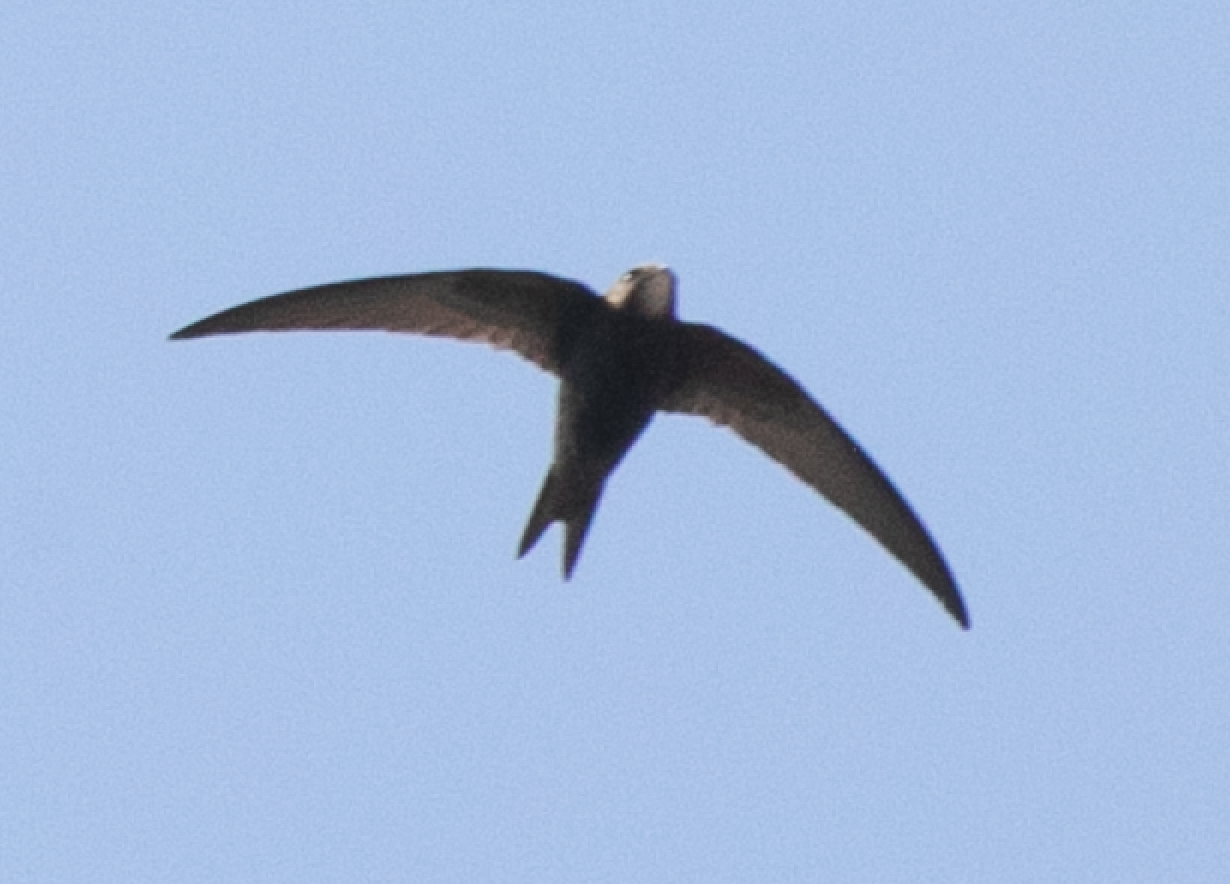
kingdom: Animalia
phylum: Chordata
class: Aves
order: Apodiformes
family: Apodidae
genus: Apus
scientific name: Apus apus
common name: Common swift
